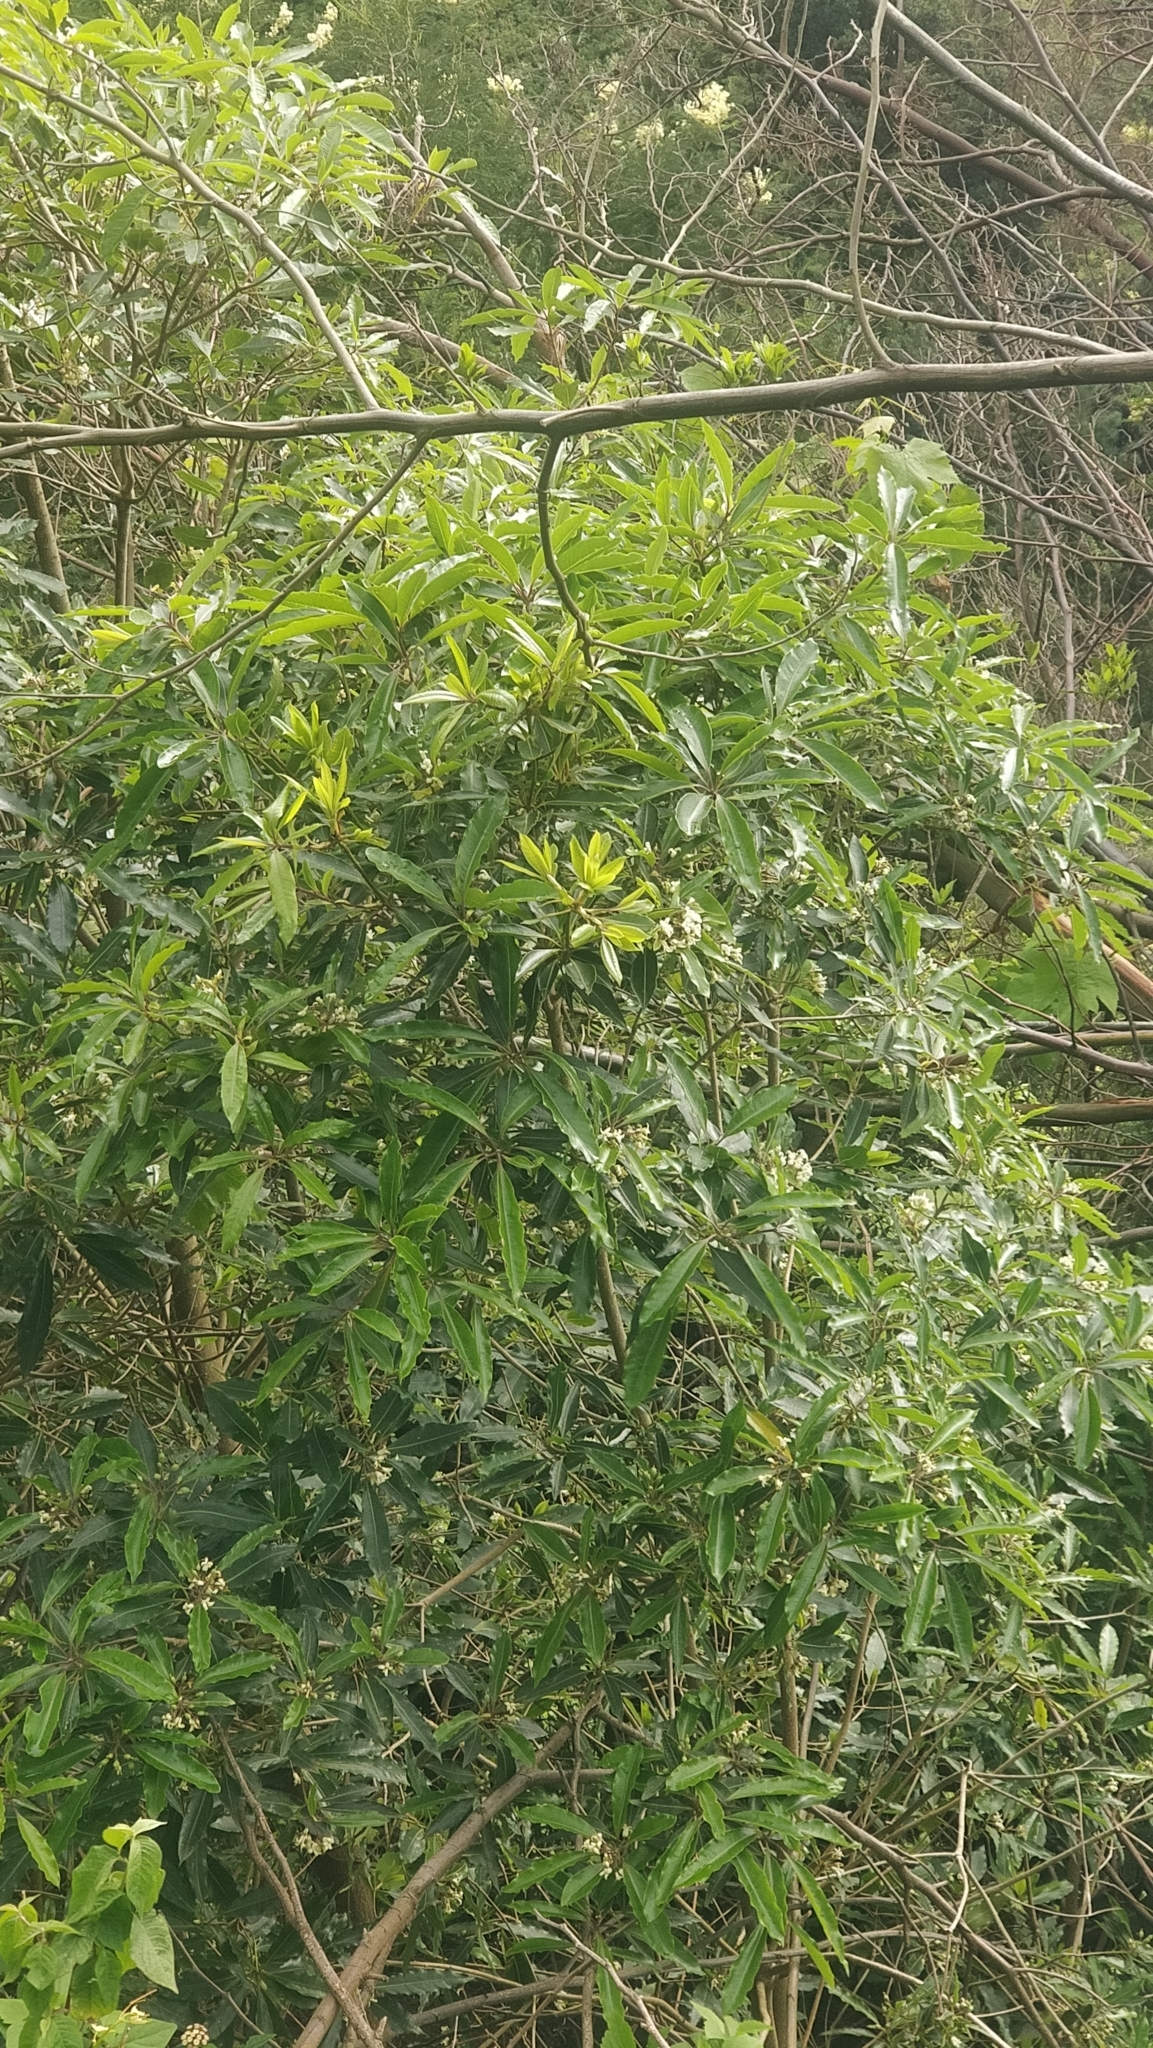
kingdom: Plantae
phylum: Tracheophyta
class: Magnoliopsida
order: Apiales
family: Pittosporaceae
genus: Pittosporum
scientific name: Pittosporum undulatum
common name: Australian cheesewood
